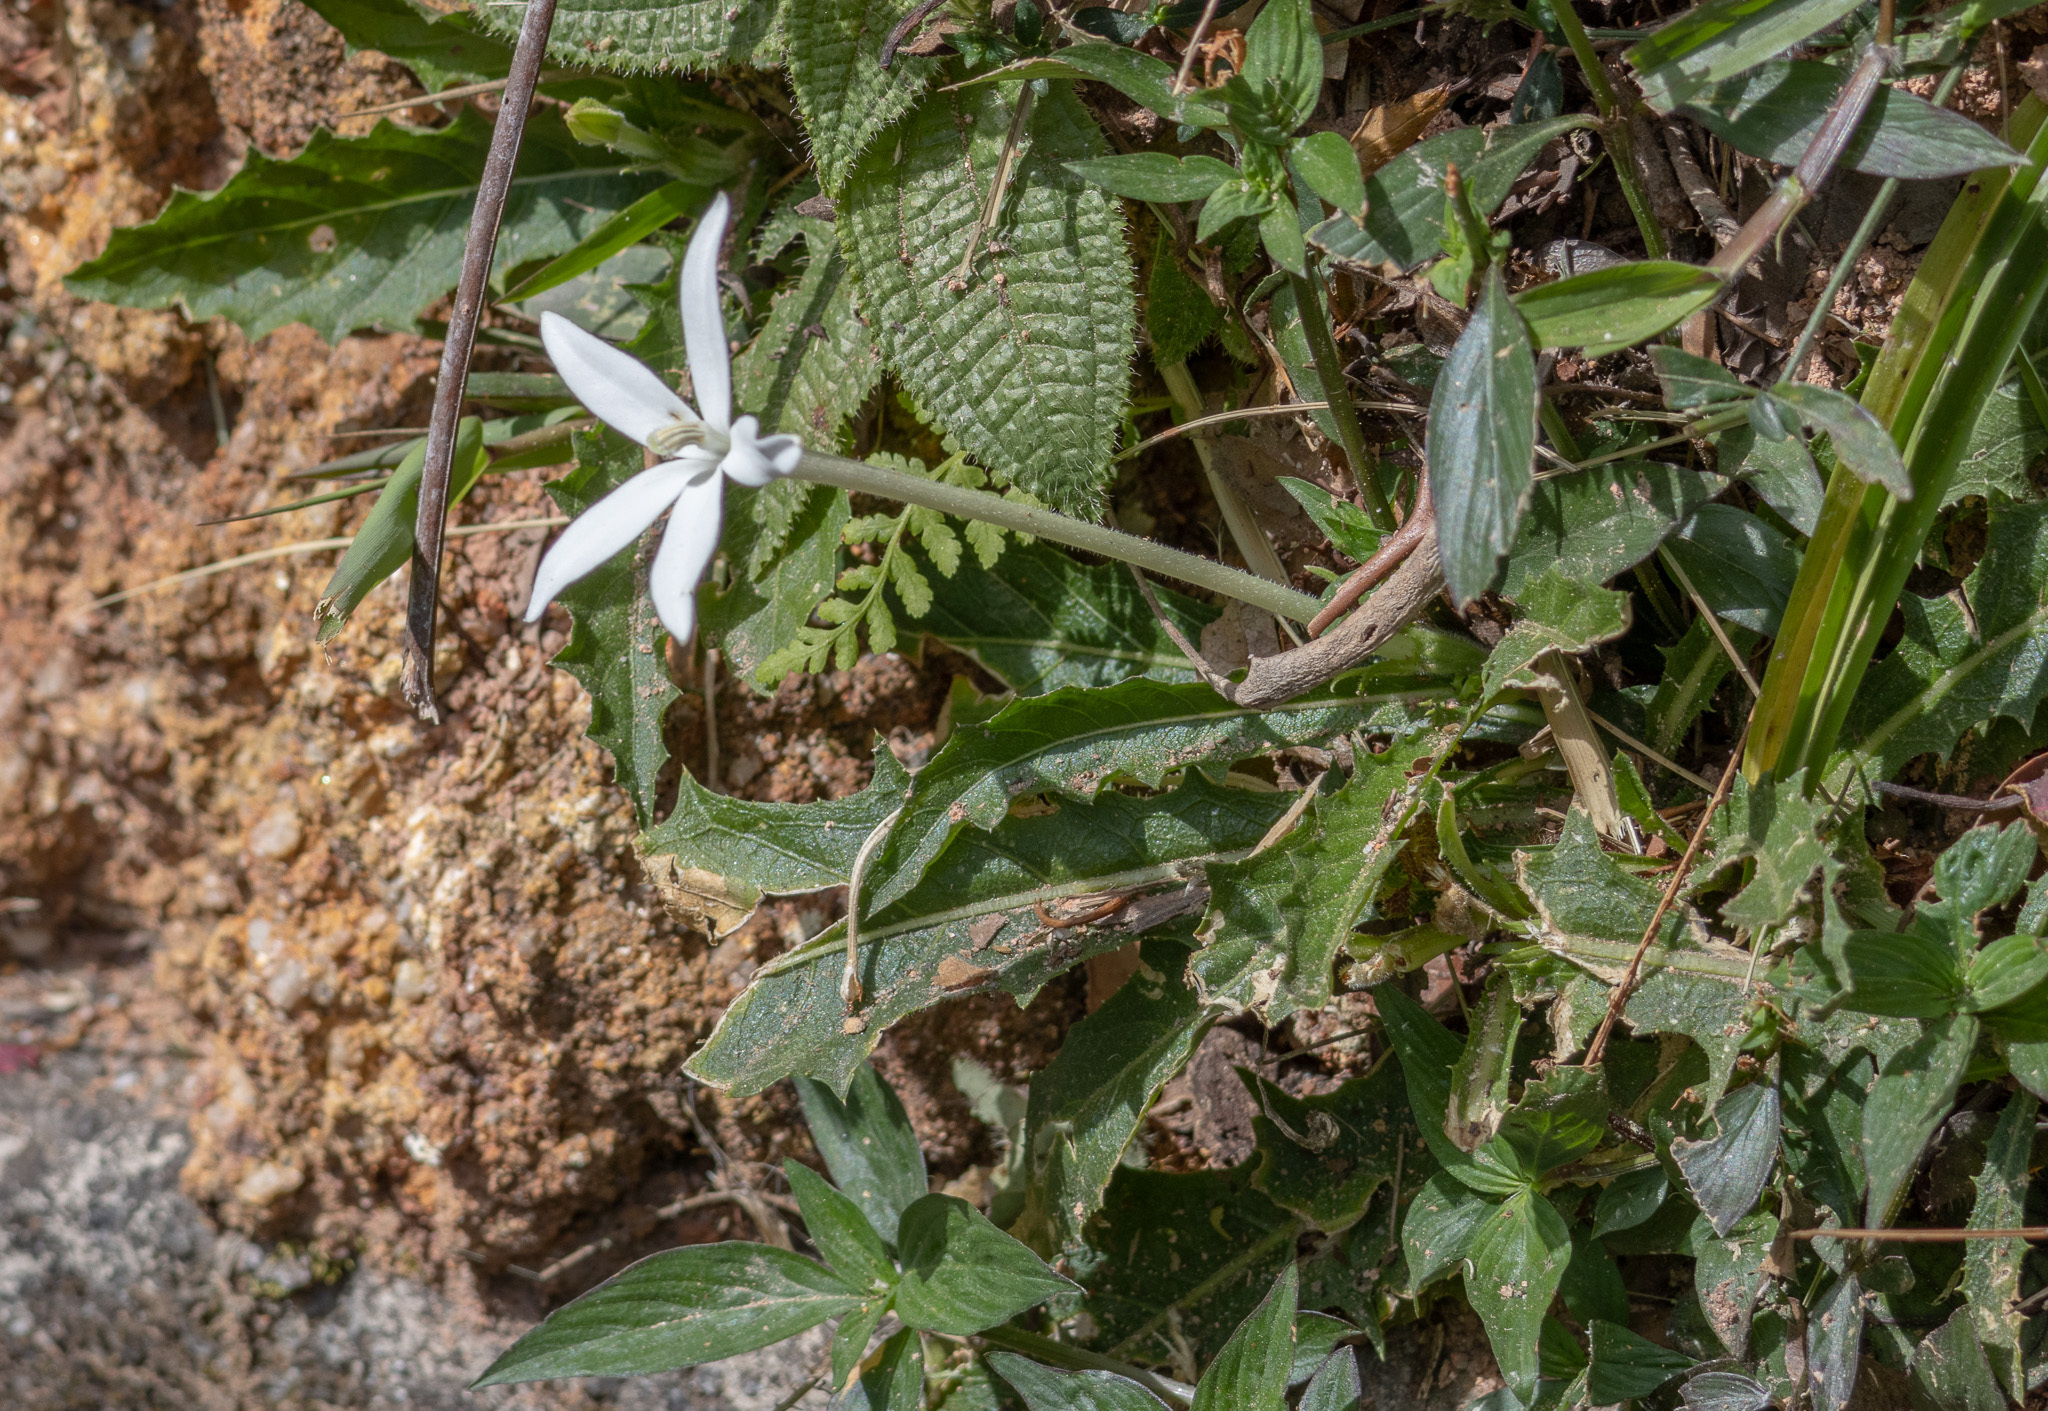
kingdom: Plantae
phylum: Tracheophyta
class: Magnoliopsida
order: Asterales
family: Campanulaceae
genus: Hippobroma
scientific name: Hippobroma longiflora
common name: Madamfate
